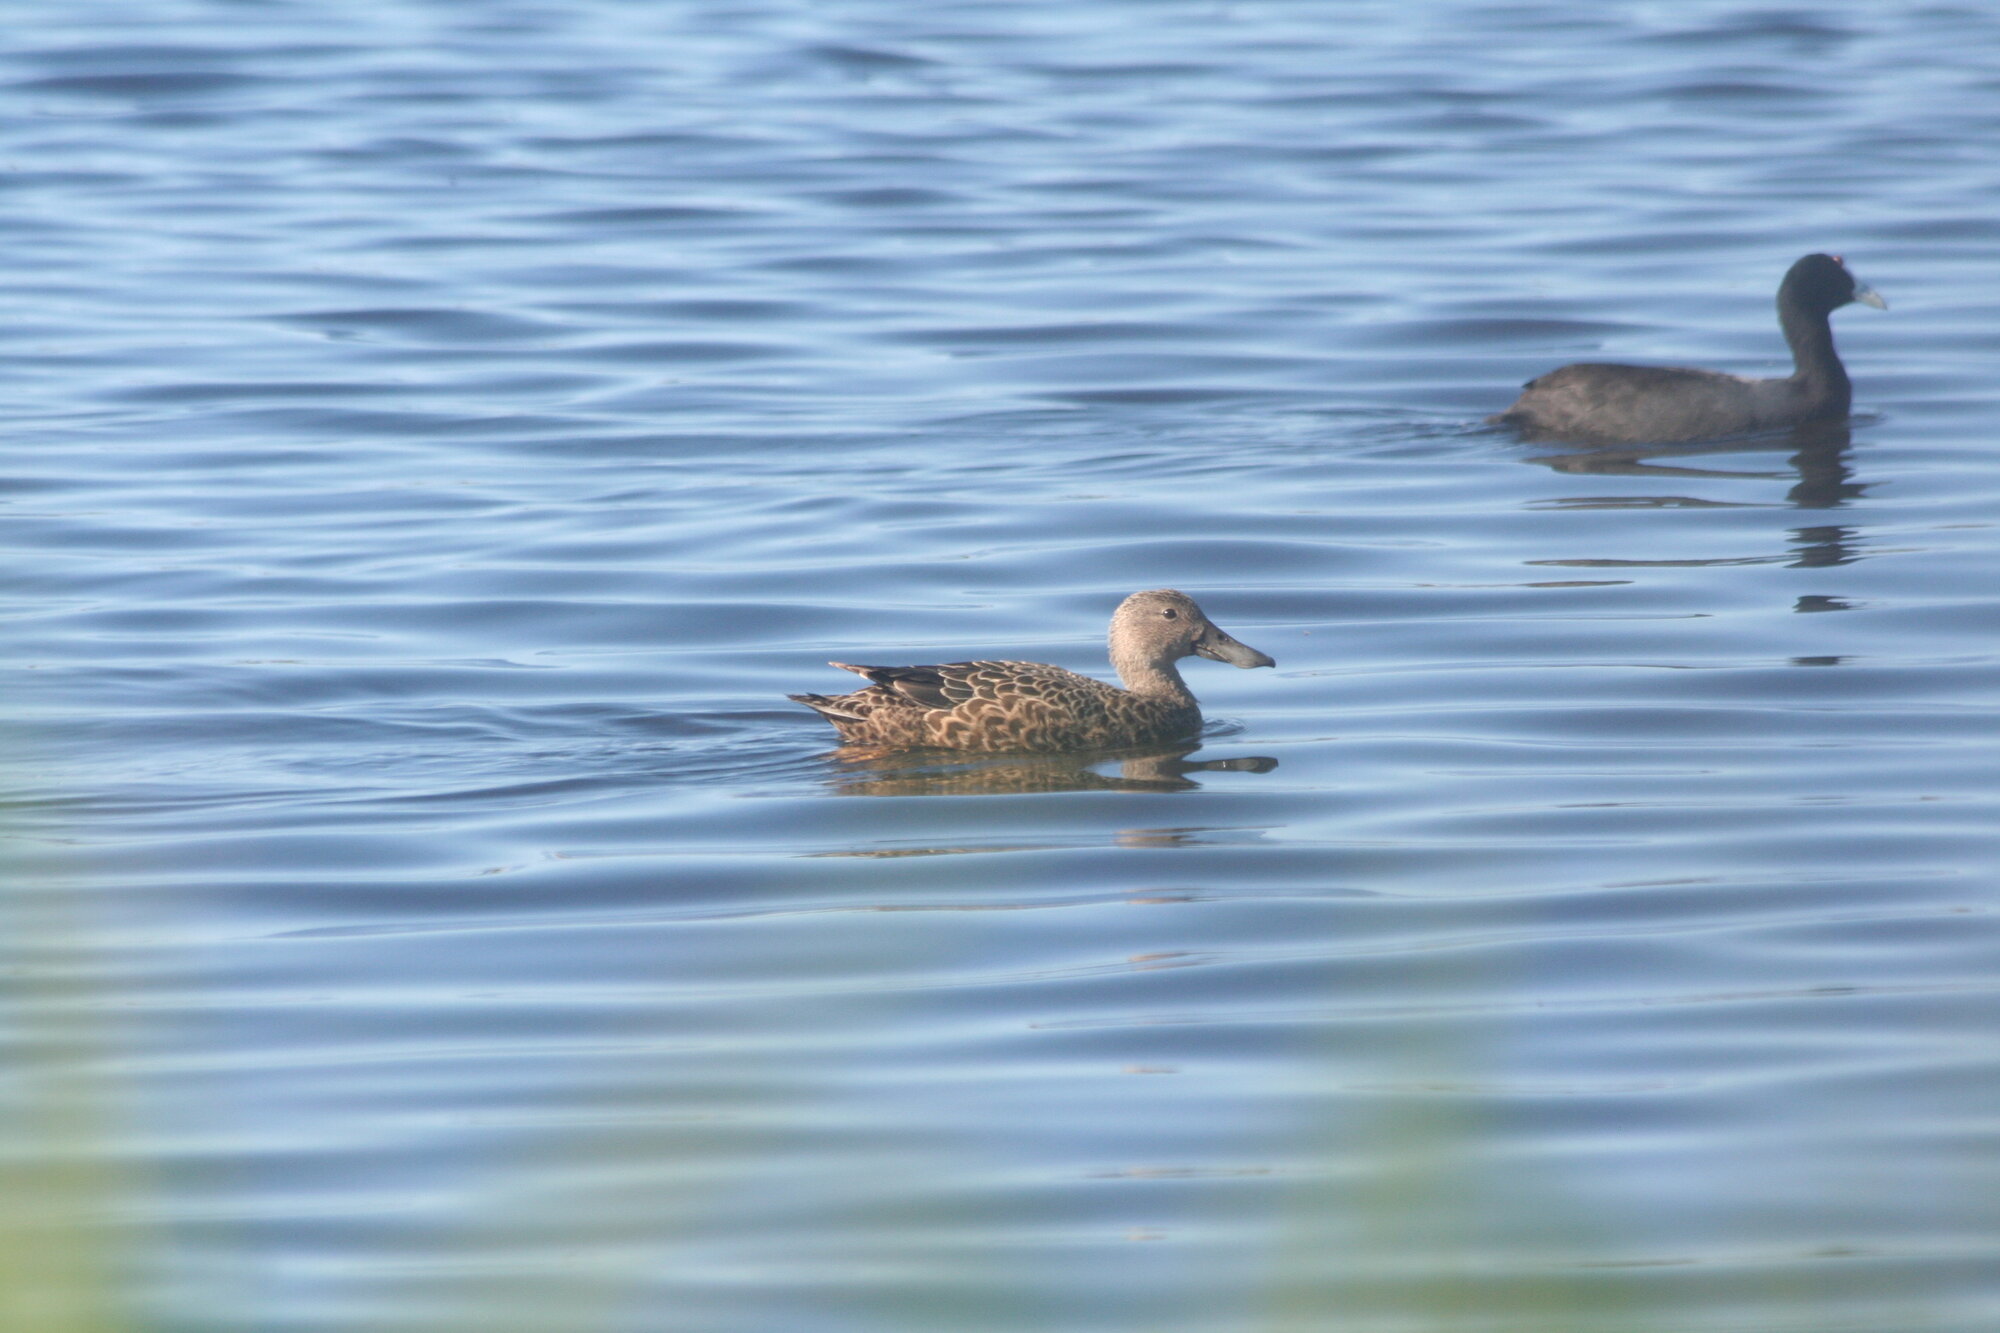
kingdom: Animalia
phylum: Chordata
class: Aves
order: Anseriformes
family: Anatidae
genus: Spatula
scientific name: Spatula smithii
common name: Cape shoveler
